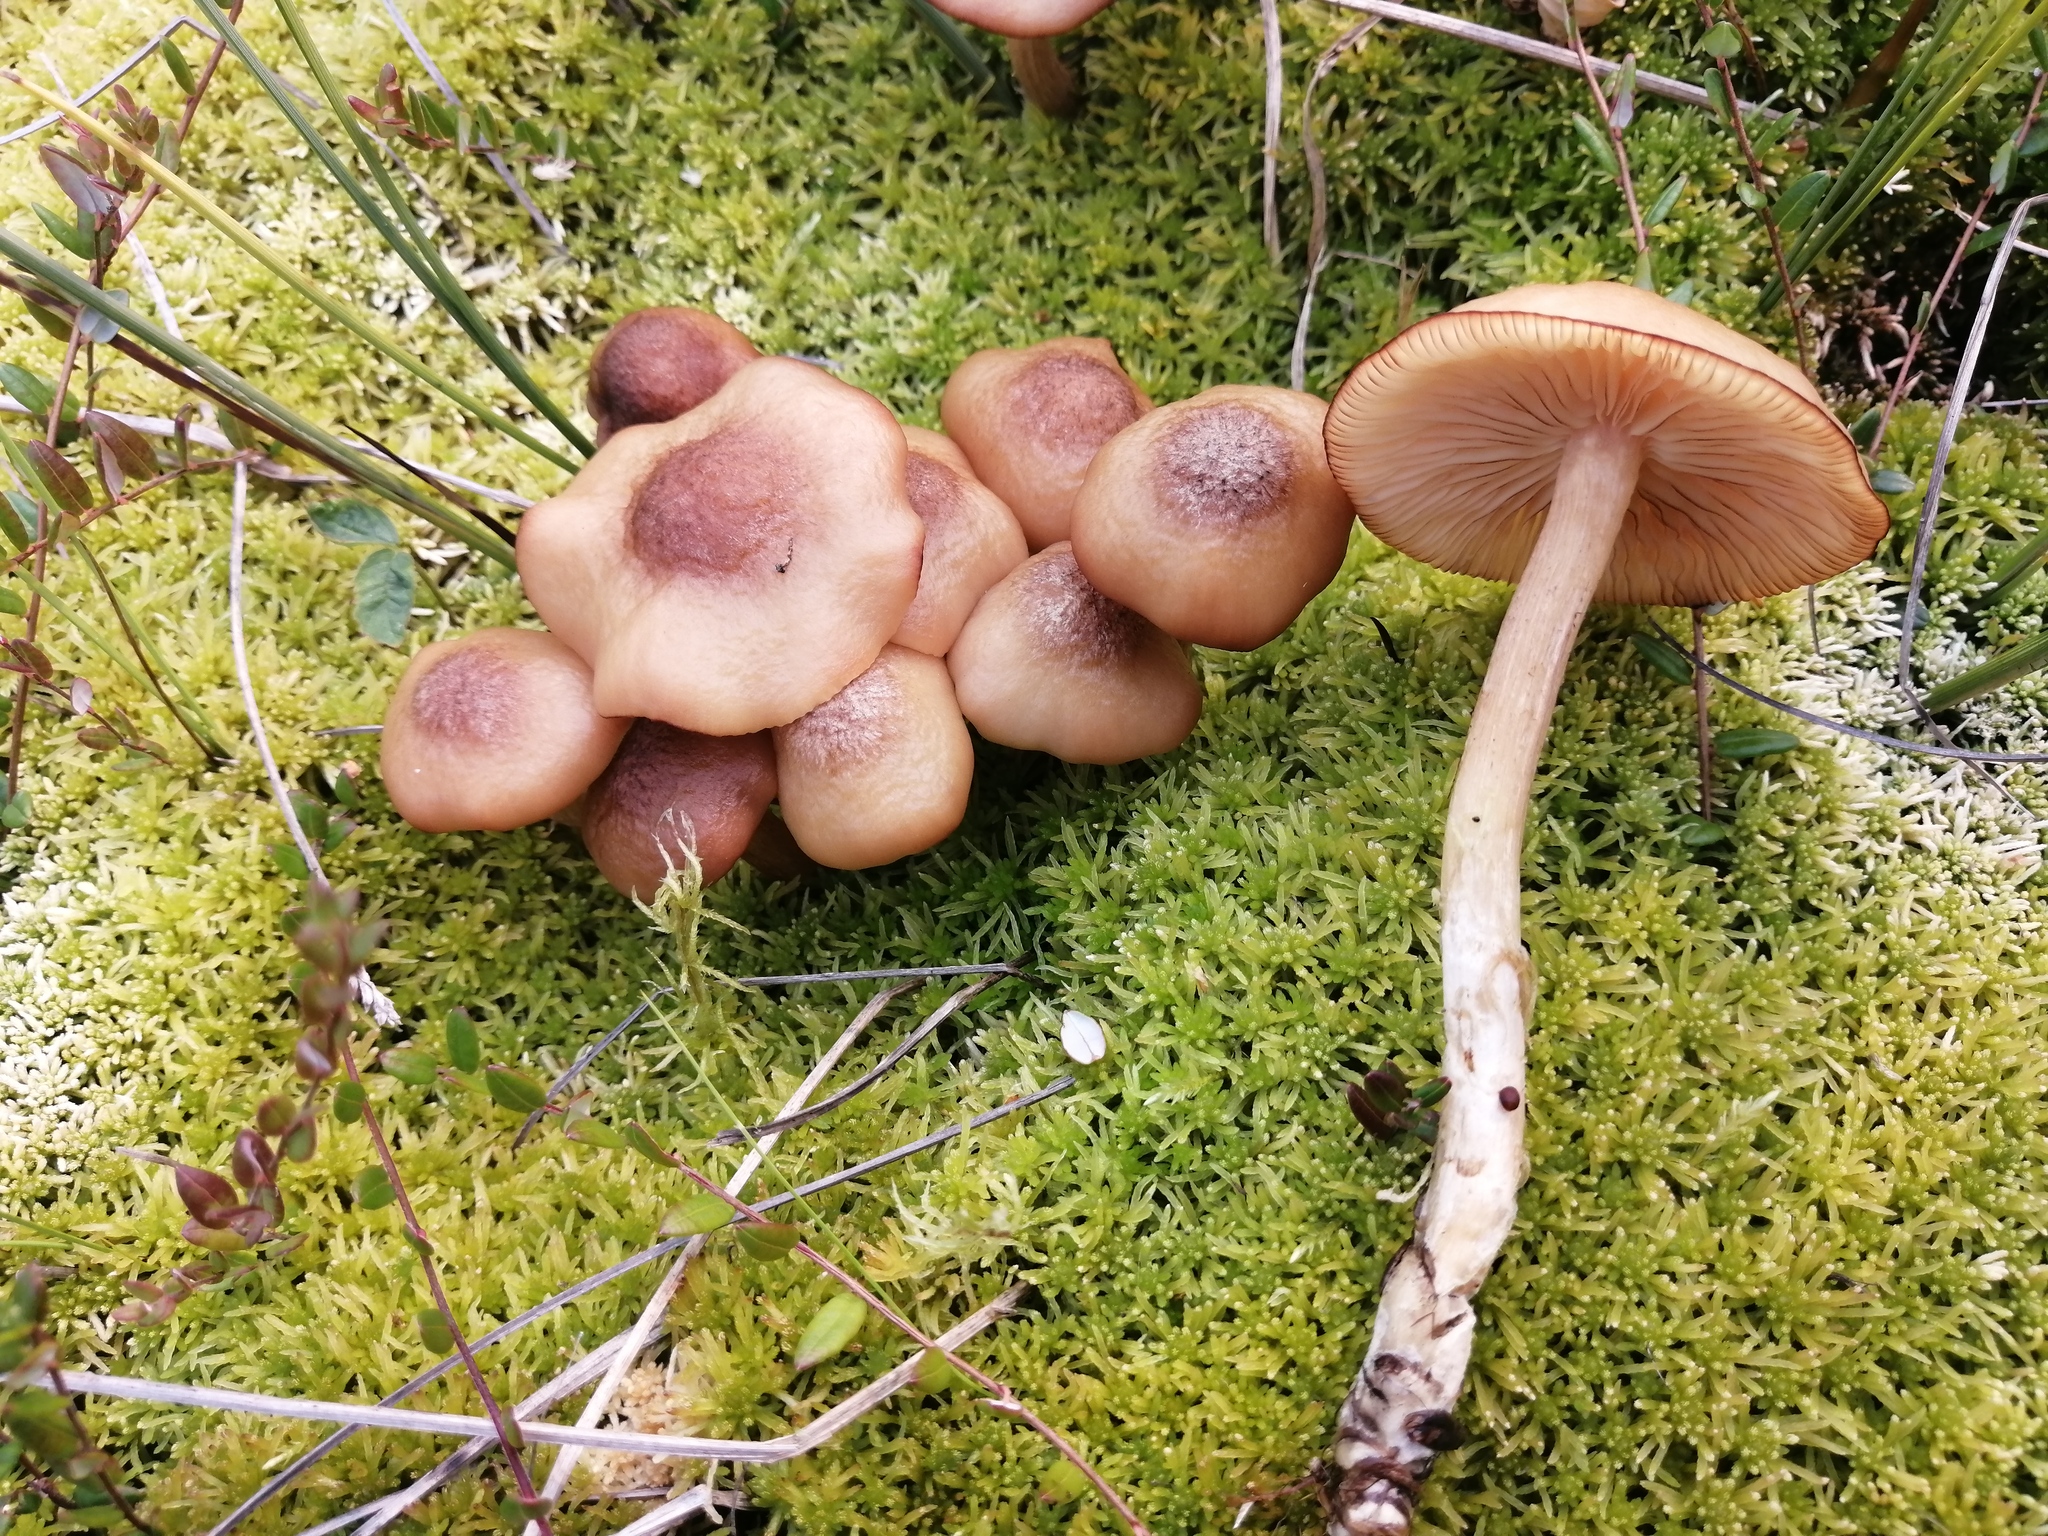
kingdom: Fungi
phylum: Basidiomycota
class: Agaricomycetes
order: Agaricales
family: Physalacriaceae
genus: Desarmillaria
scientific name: Desarmillaria ectypa
